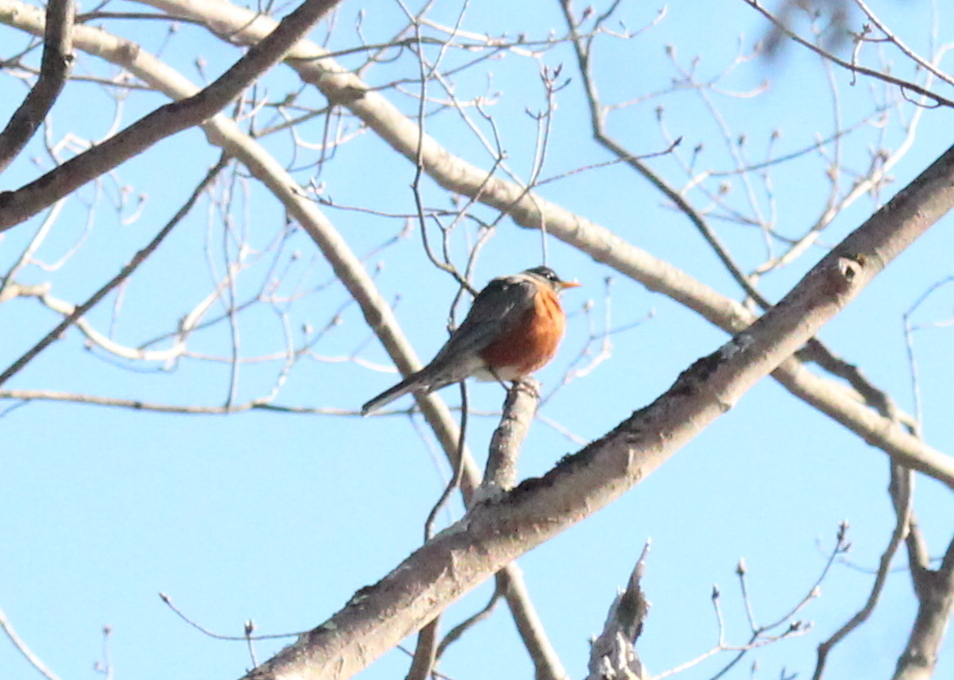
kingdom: Animalia
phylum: Chordata
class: Aves
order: Passeriformes
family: Turdidae
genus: Turdus
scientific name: Turdus migratorius
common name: American robin
